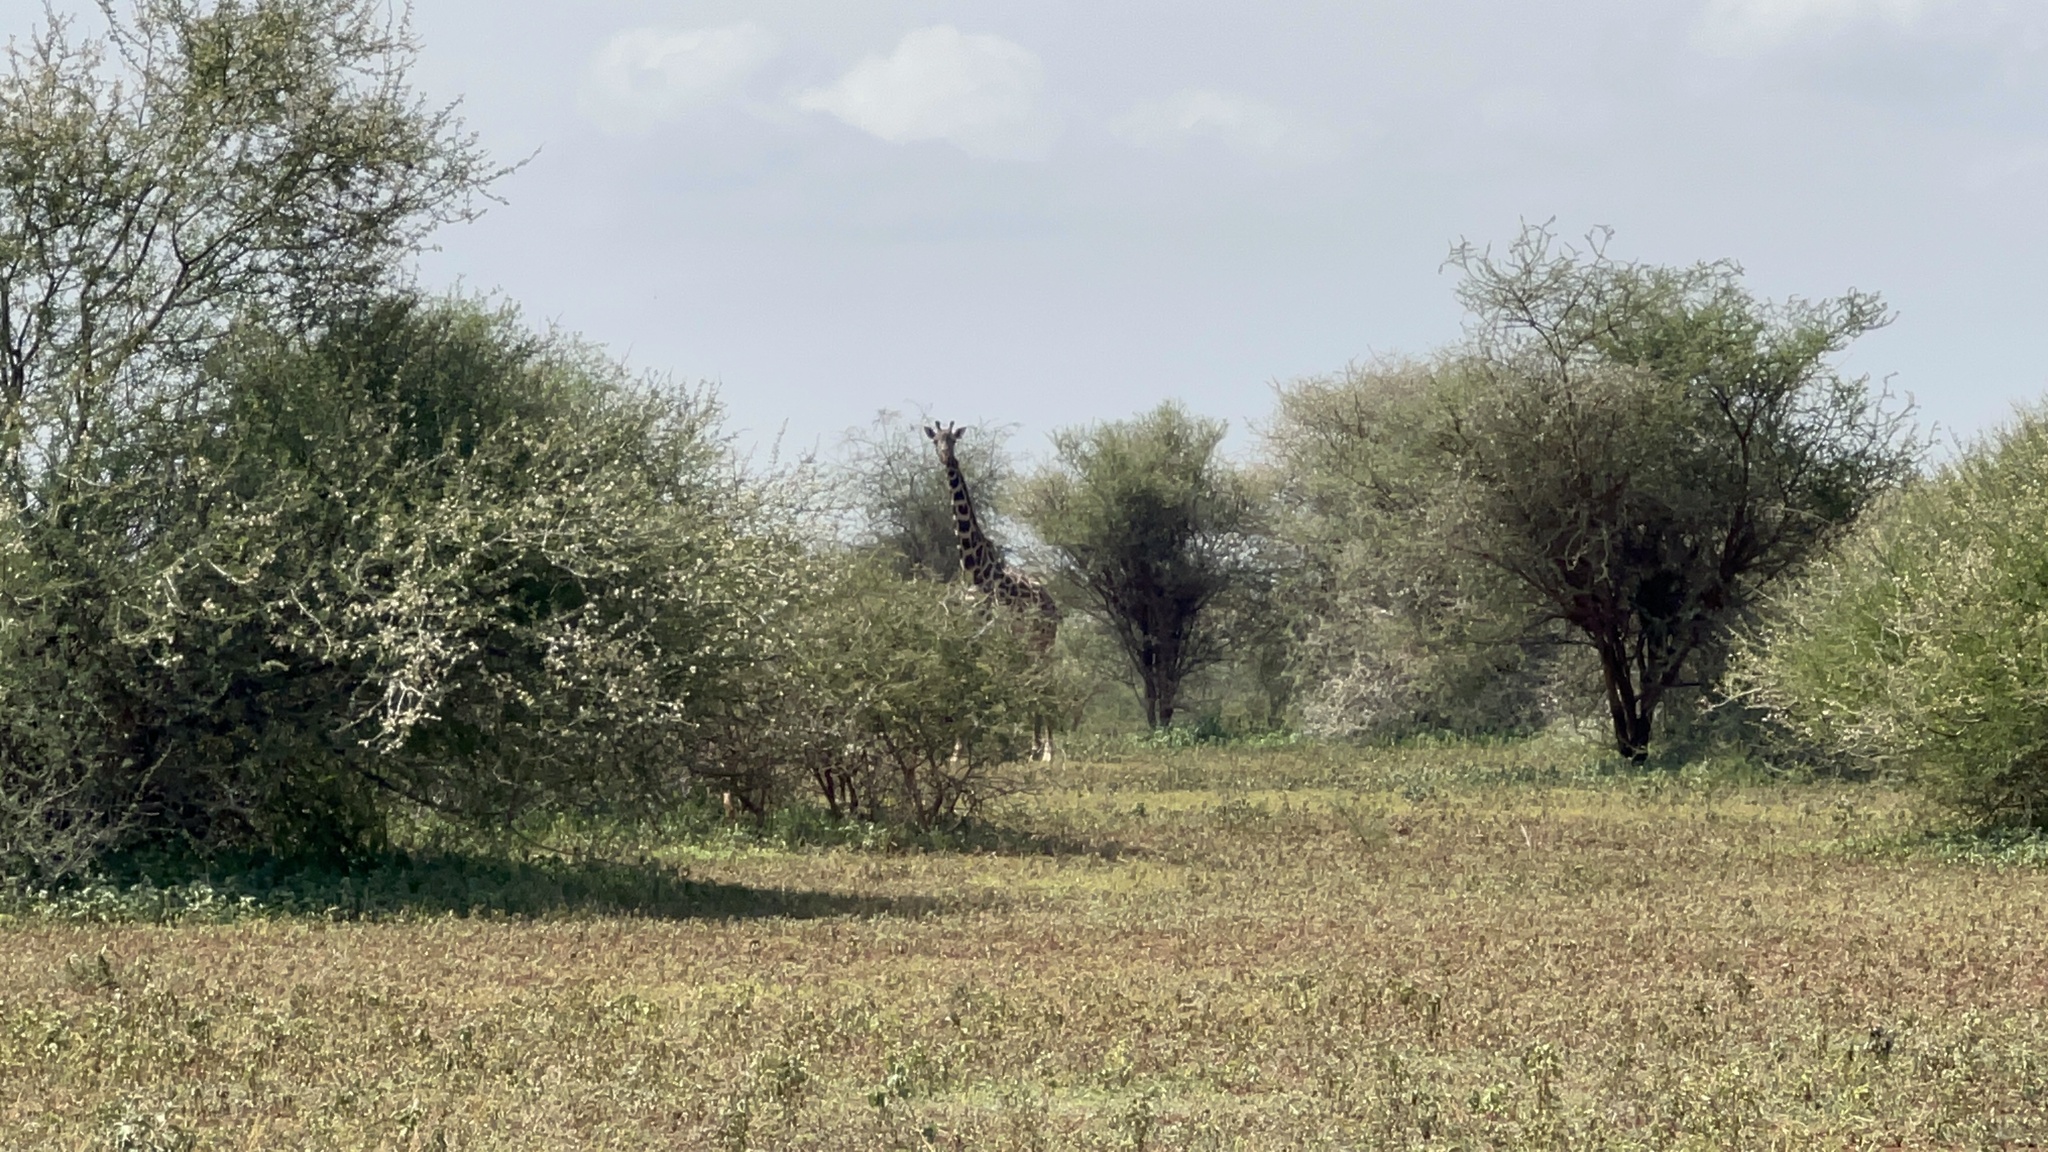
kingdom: Animalia
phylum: Chordata
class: Mammalia
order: Artiodactyla
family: Giraffidae
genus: Giraffa
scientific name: Giraffa tippelskirchi
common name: Masai giraffe
